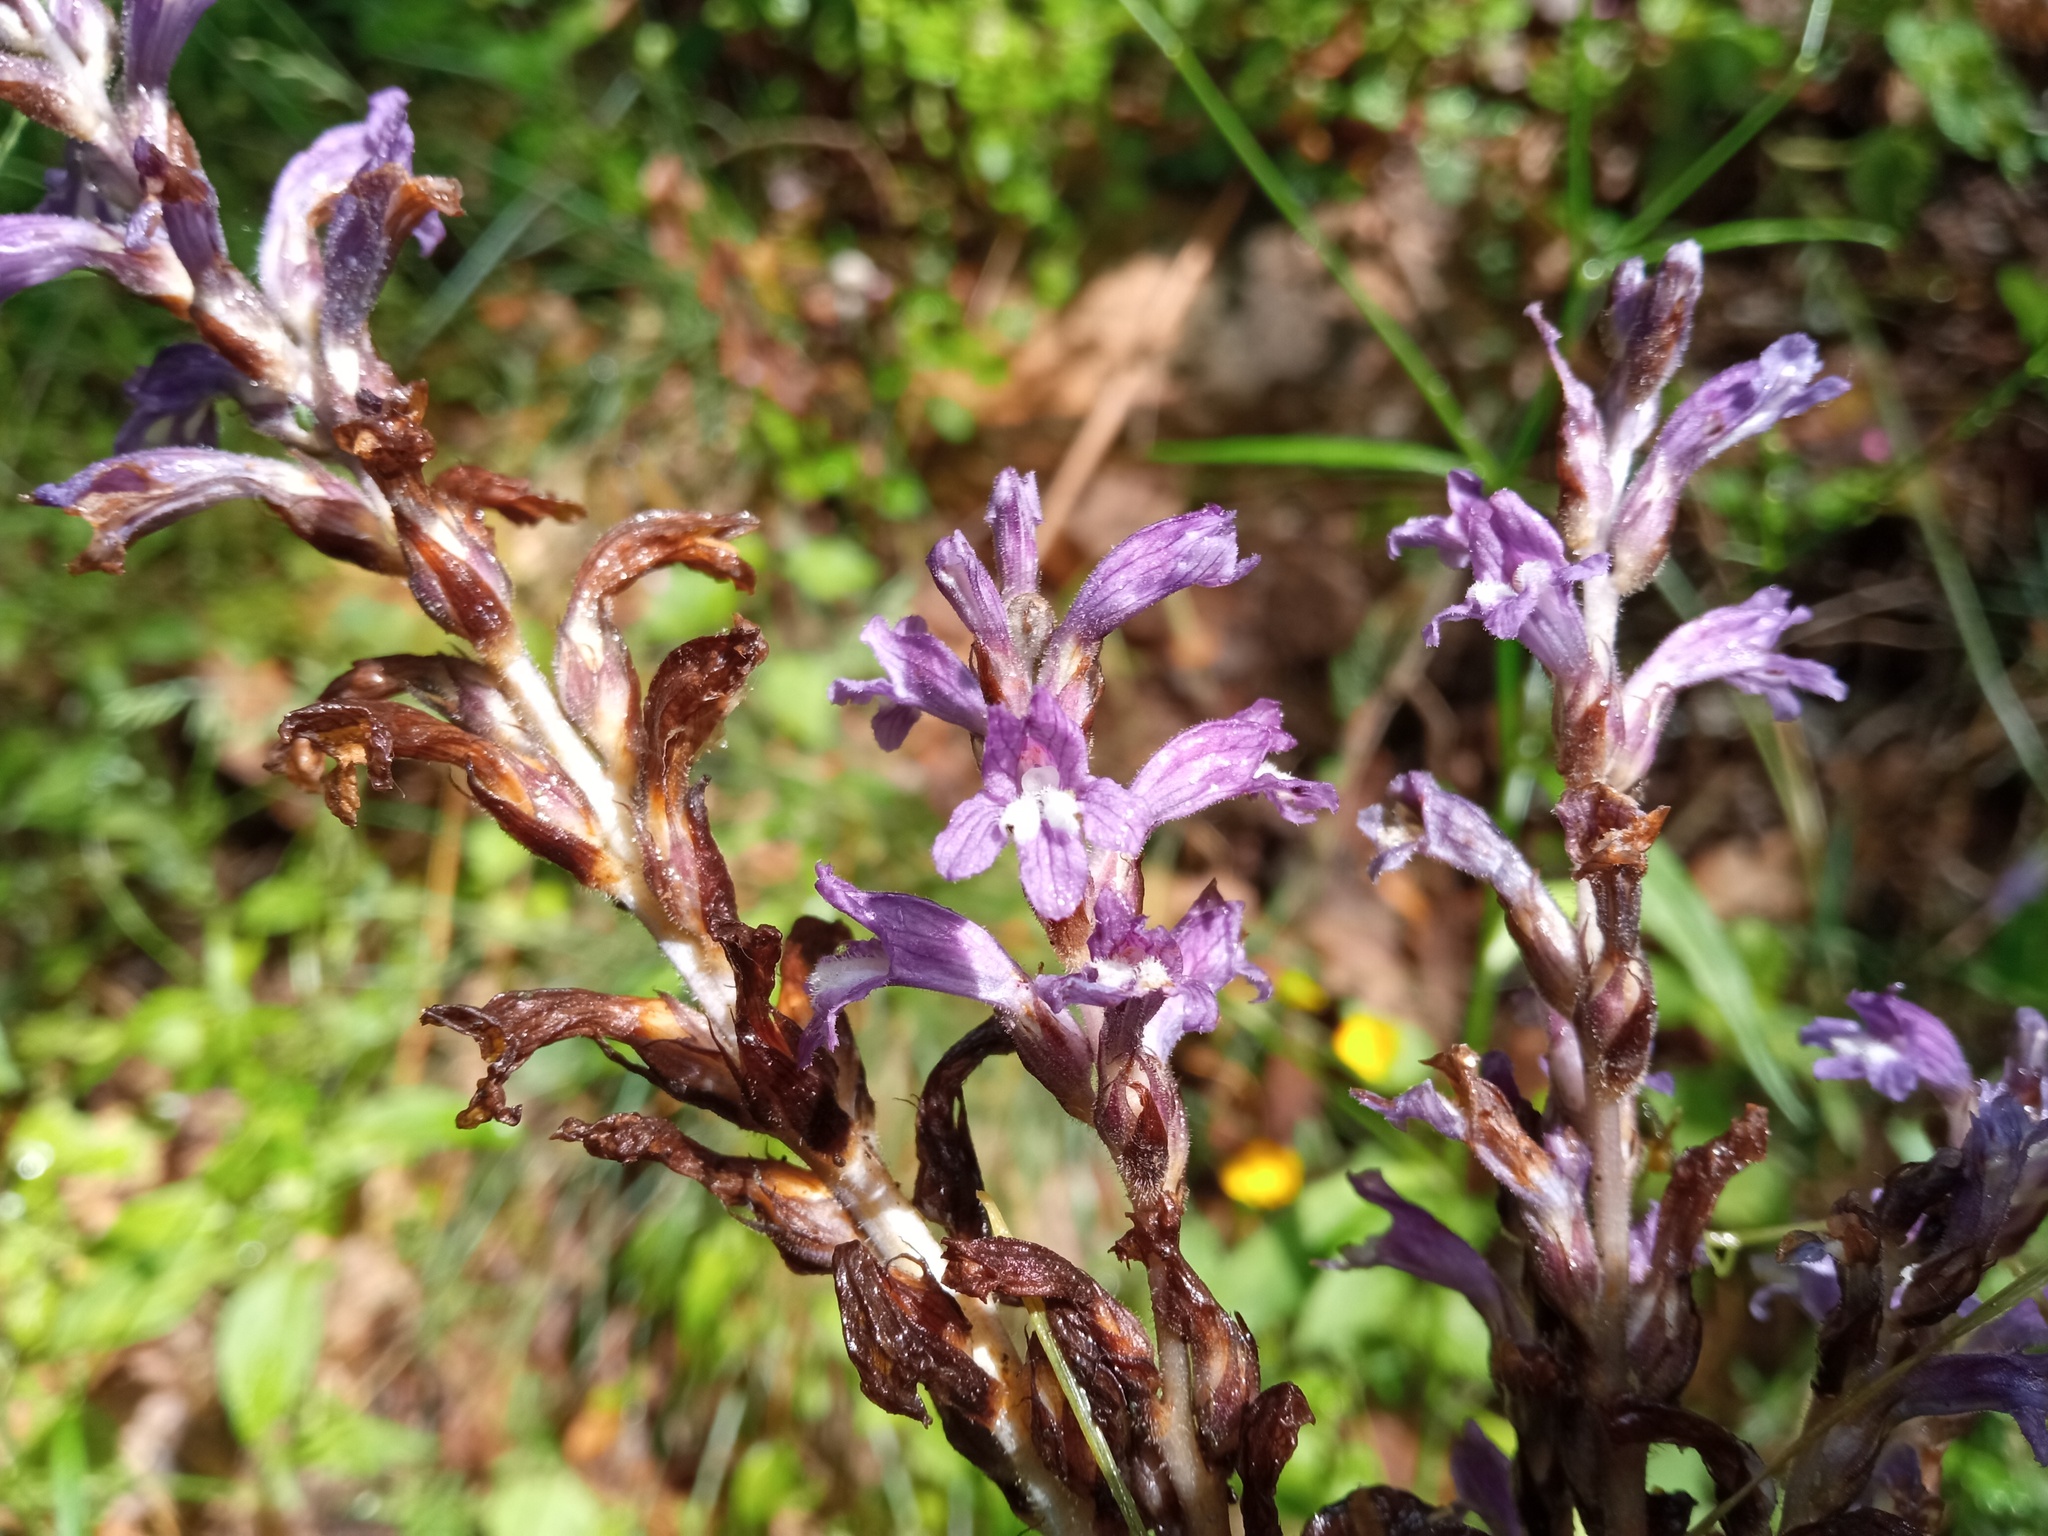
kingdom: Plantae
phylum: Tracheophyta
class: Magnoliopsida
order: Lamiales
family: Orobanchaceae
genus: Phelipanche
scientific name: Phelipanche mutelii
